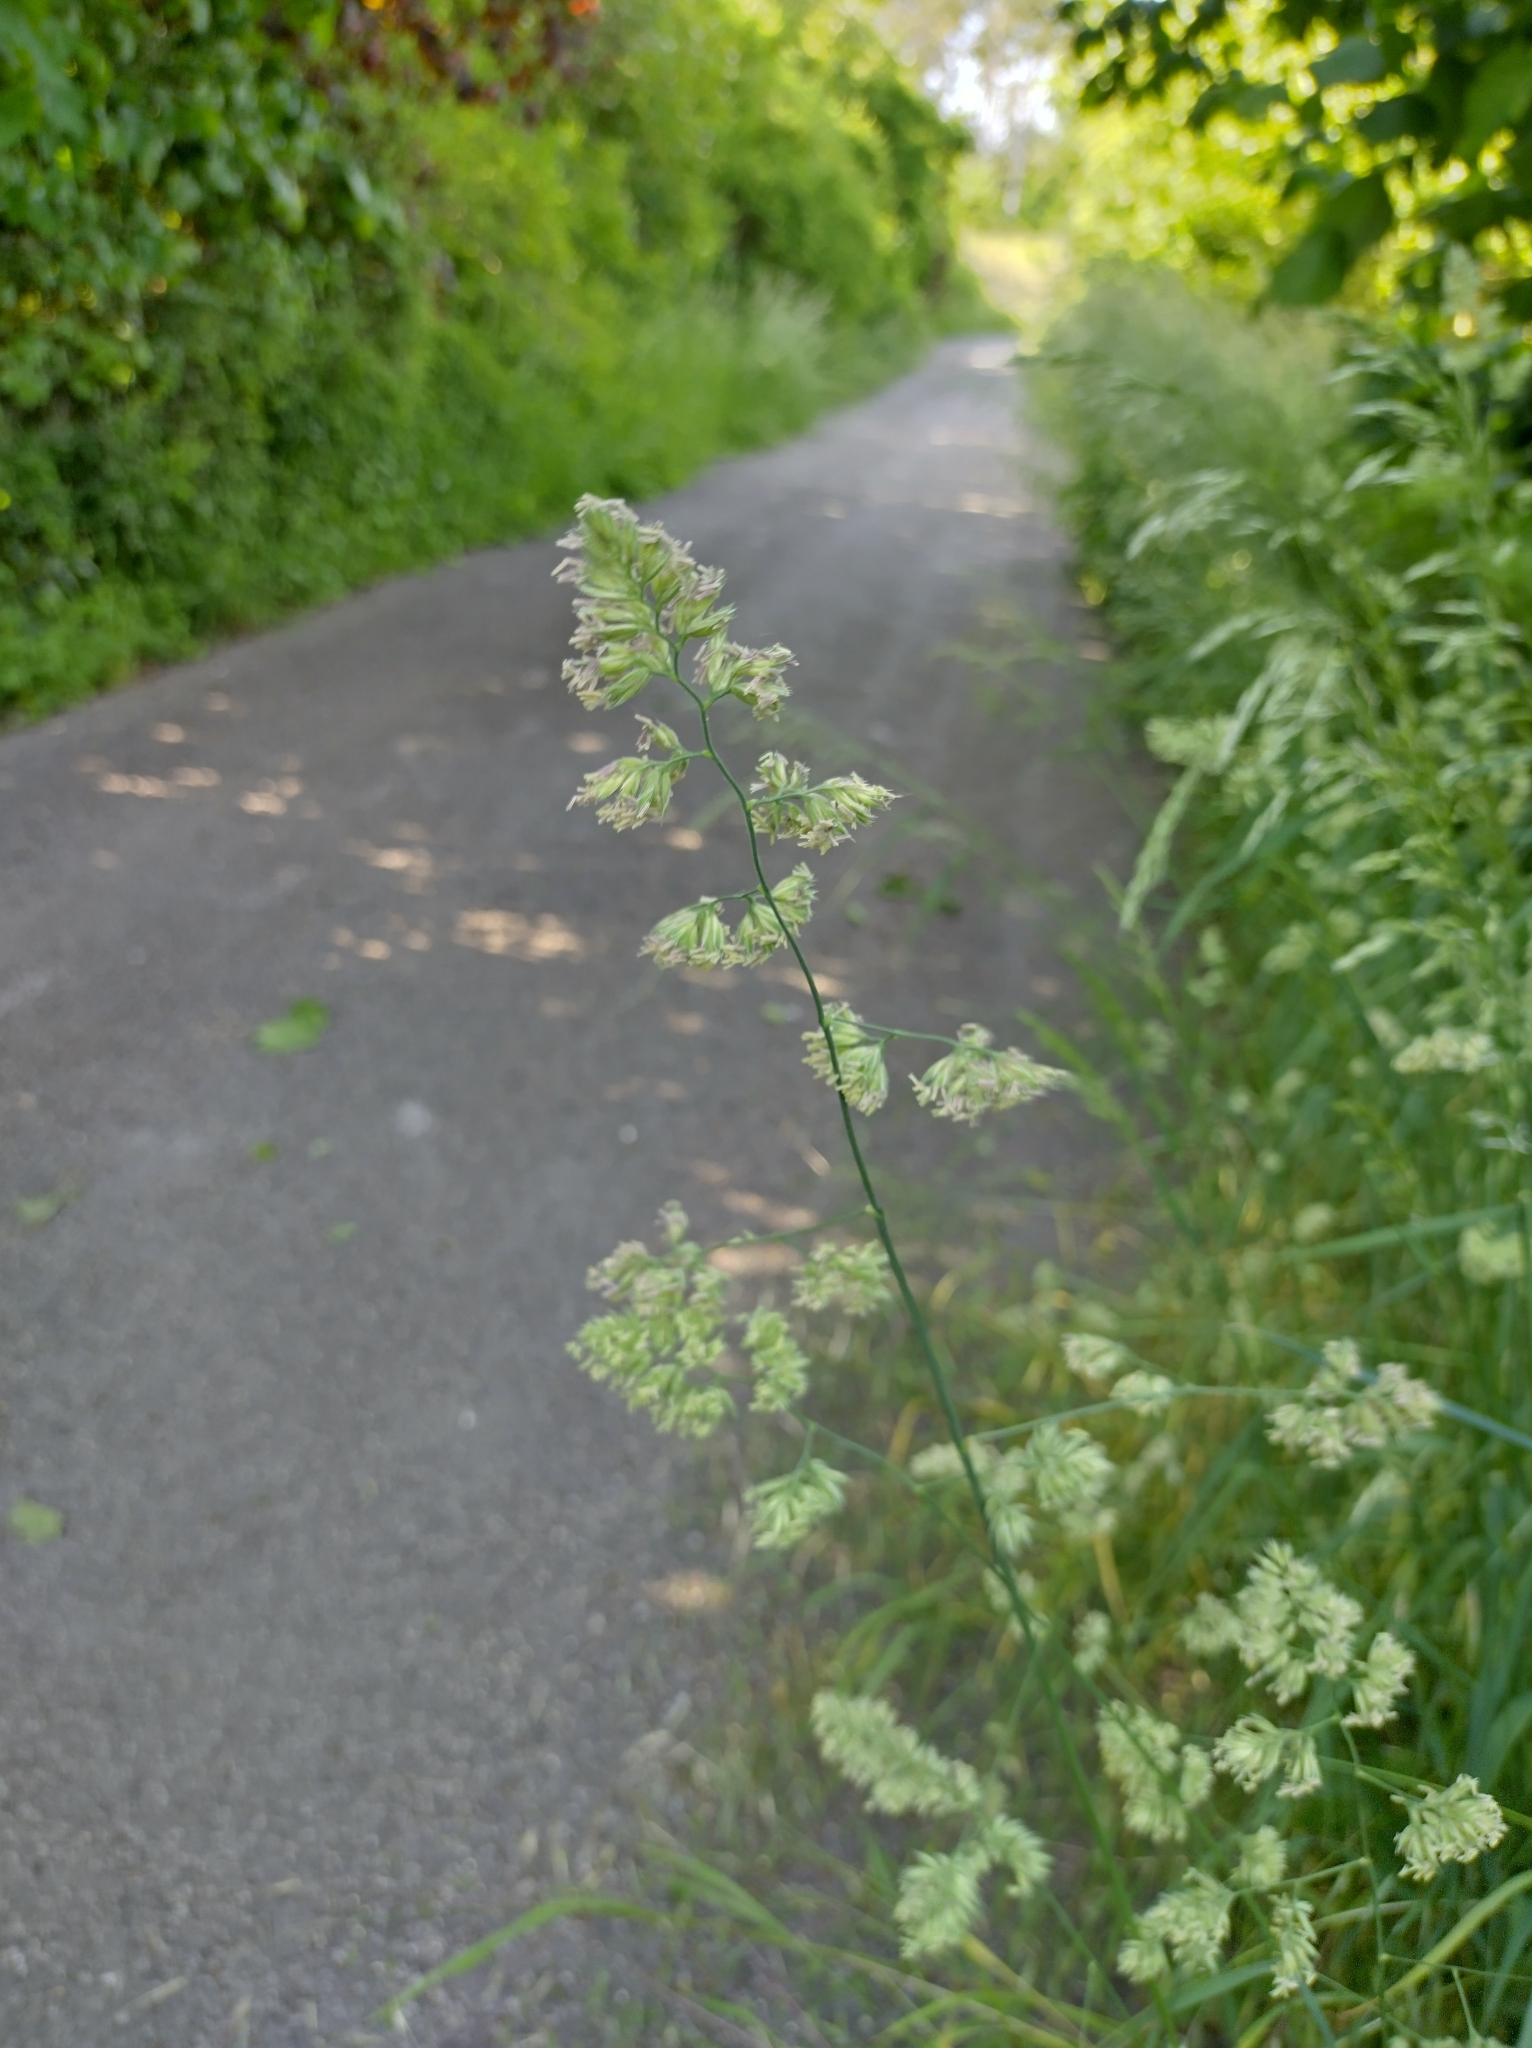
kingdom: Plantae
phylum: Tracheophyta
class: Liliopsida
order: Poales
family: Poaceae
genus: Dactylis
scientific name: Dactylis glomerata
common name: Orchardgrass
